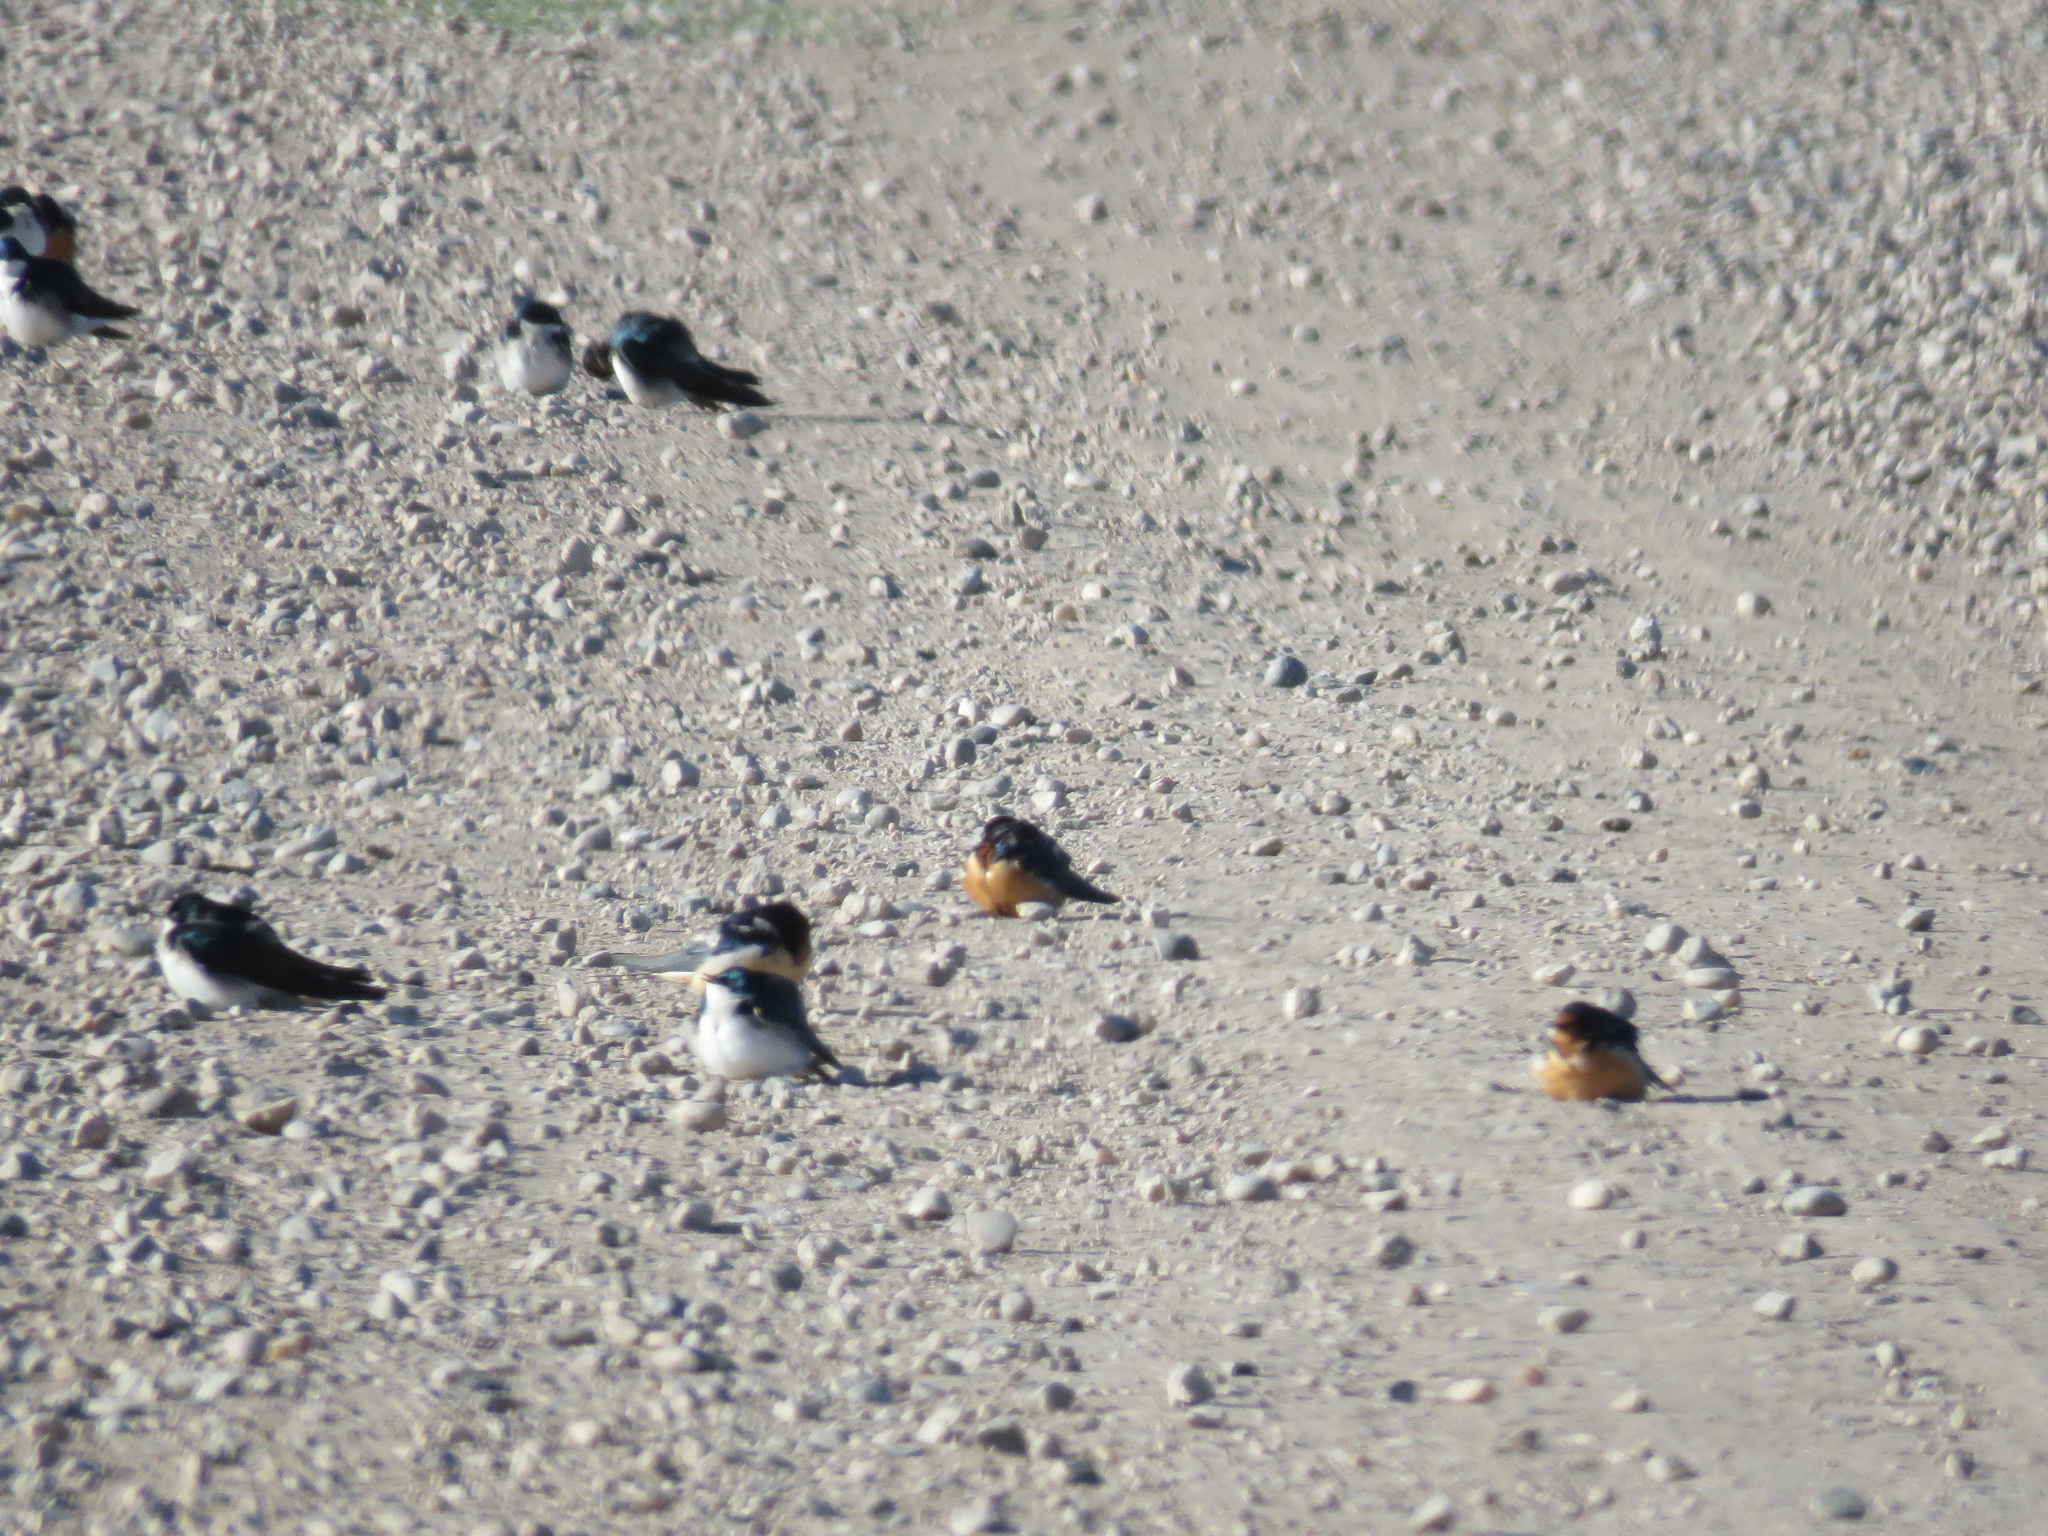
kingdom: Animalia
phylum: Chordata
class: Aves
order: Passeriformes
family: Hirundinidae
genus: Hirundo
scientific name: Hirundo rustica
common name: Barn swallow
